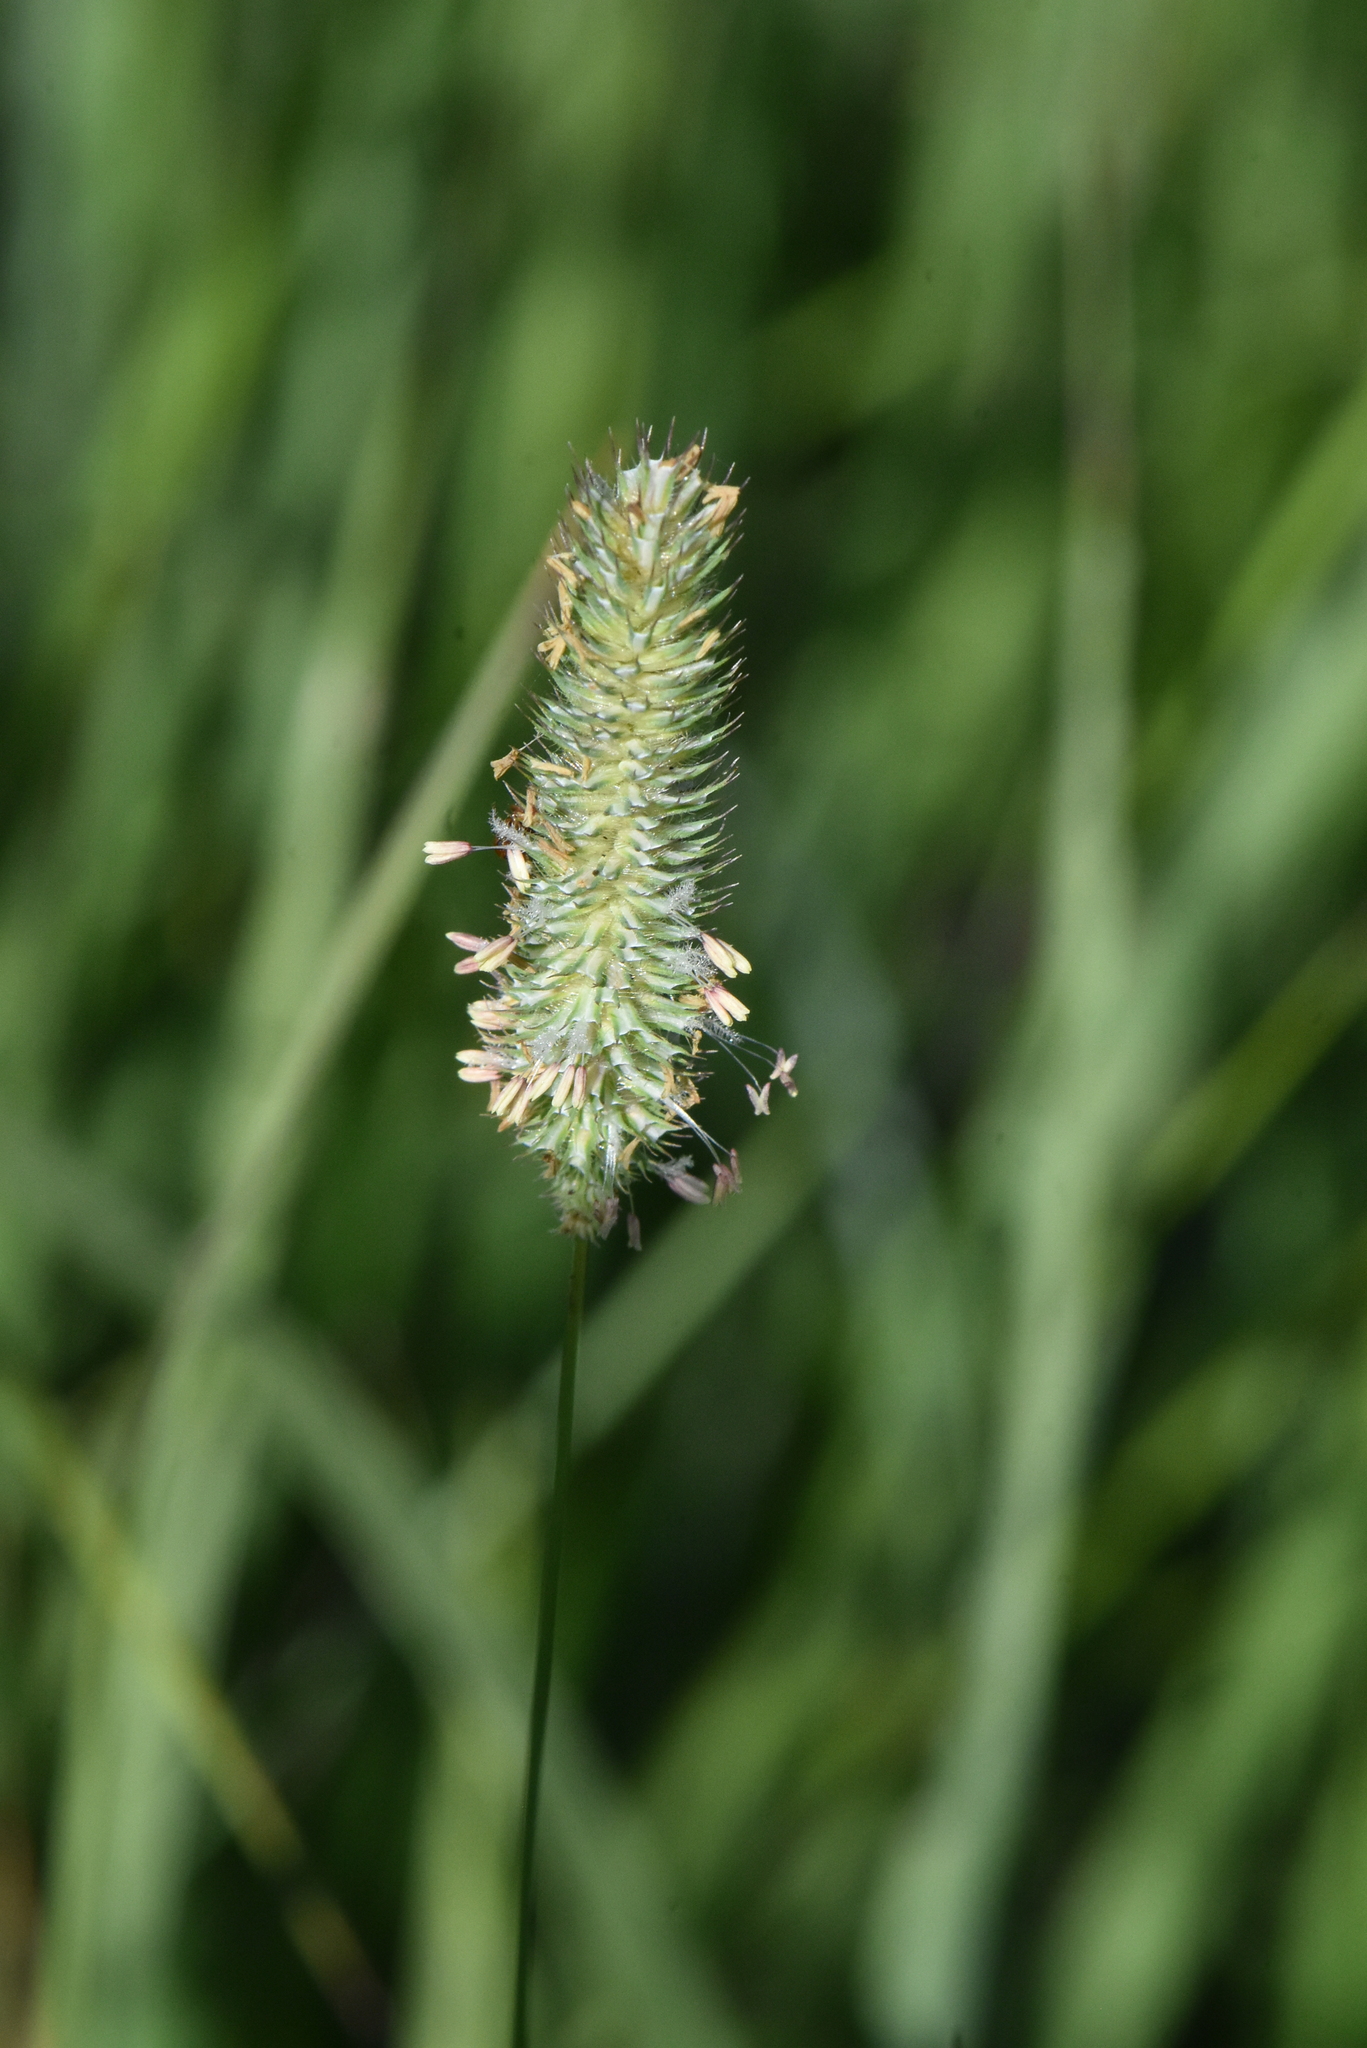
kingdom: Plantae
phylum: Tracheophyta
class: Liliopsida
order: Poales
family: Poaceae
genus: Phleum
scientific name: Phleum pratense
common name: Timothy grass
